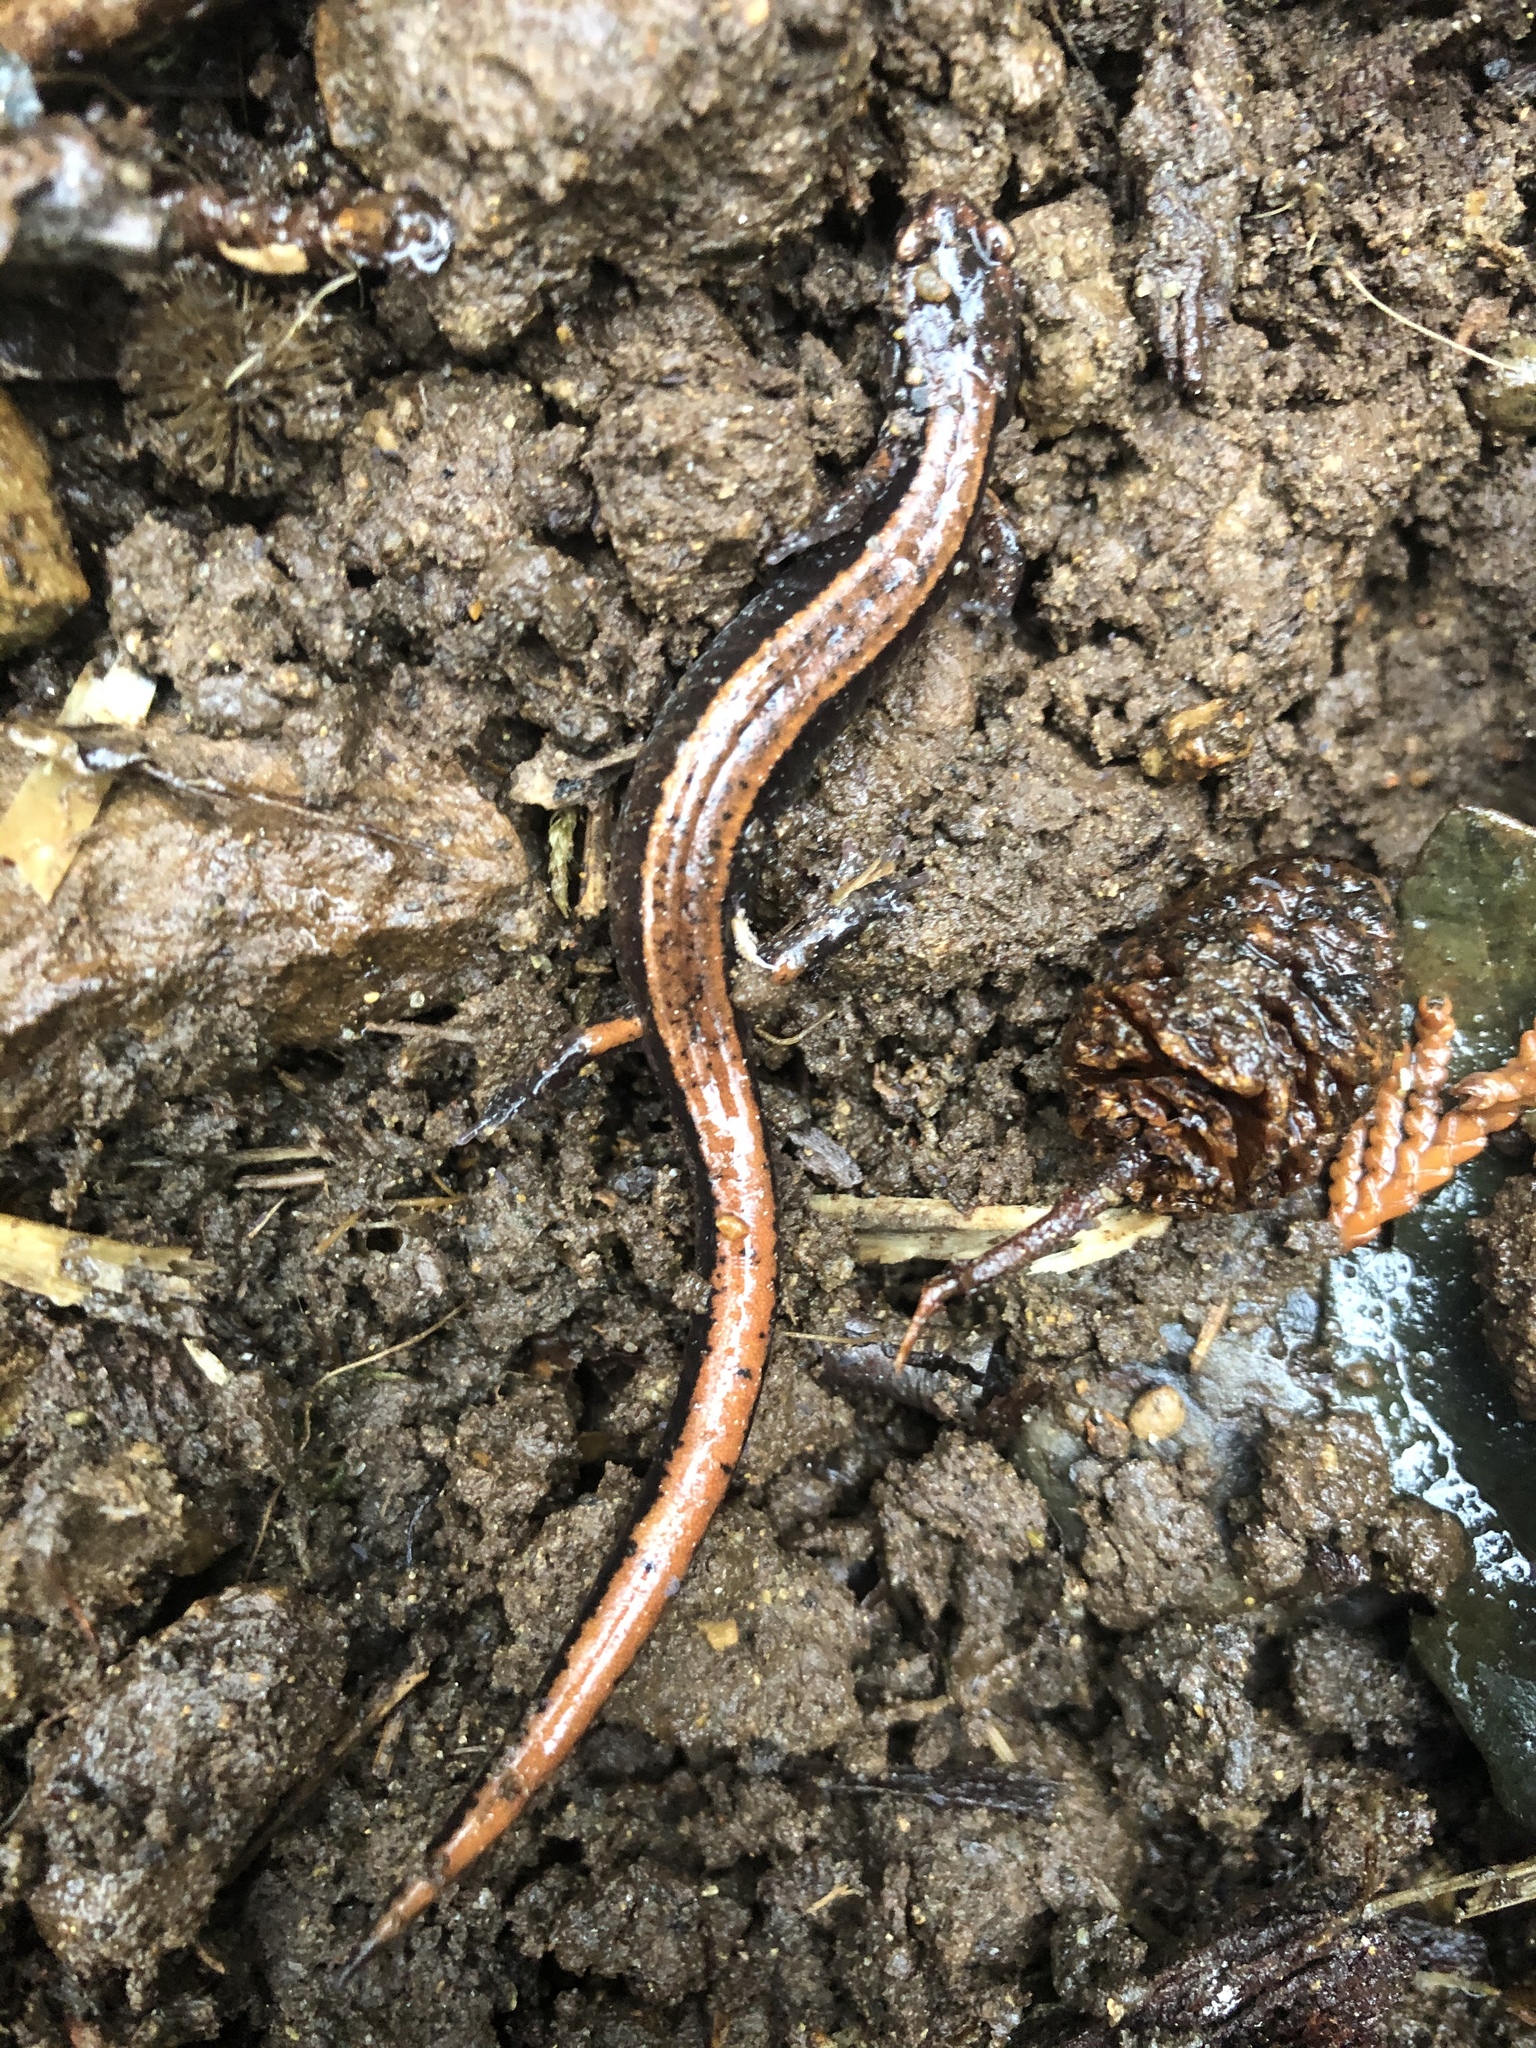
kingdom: Animalia
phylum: Chordata
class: Amphibia
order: Caudata
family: Plethodontidae
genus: Plethodon
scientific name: Plethodon vehiculum
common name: Western red-backed salamander
